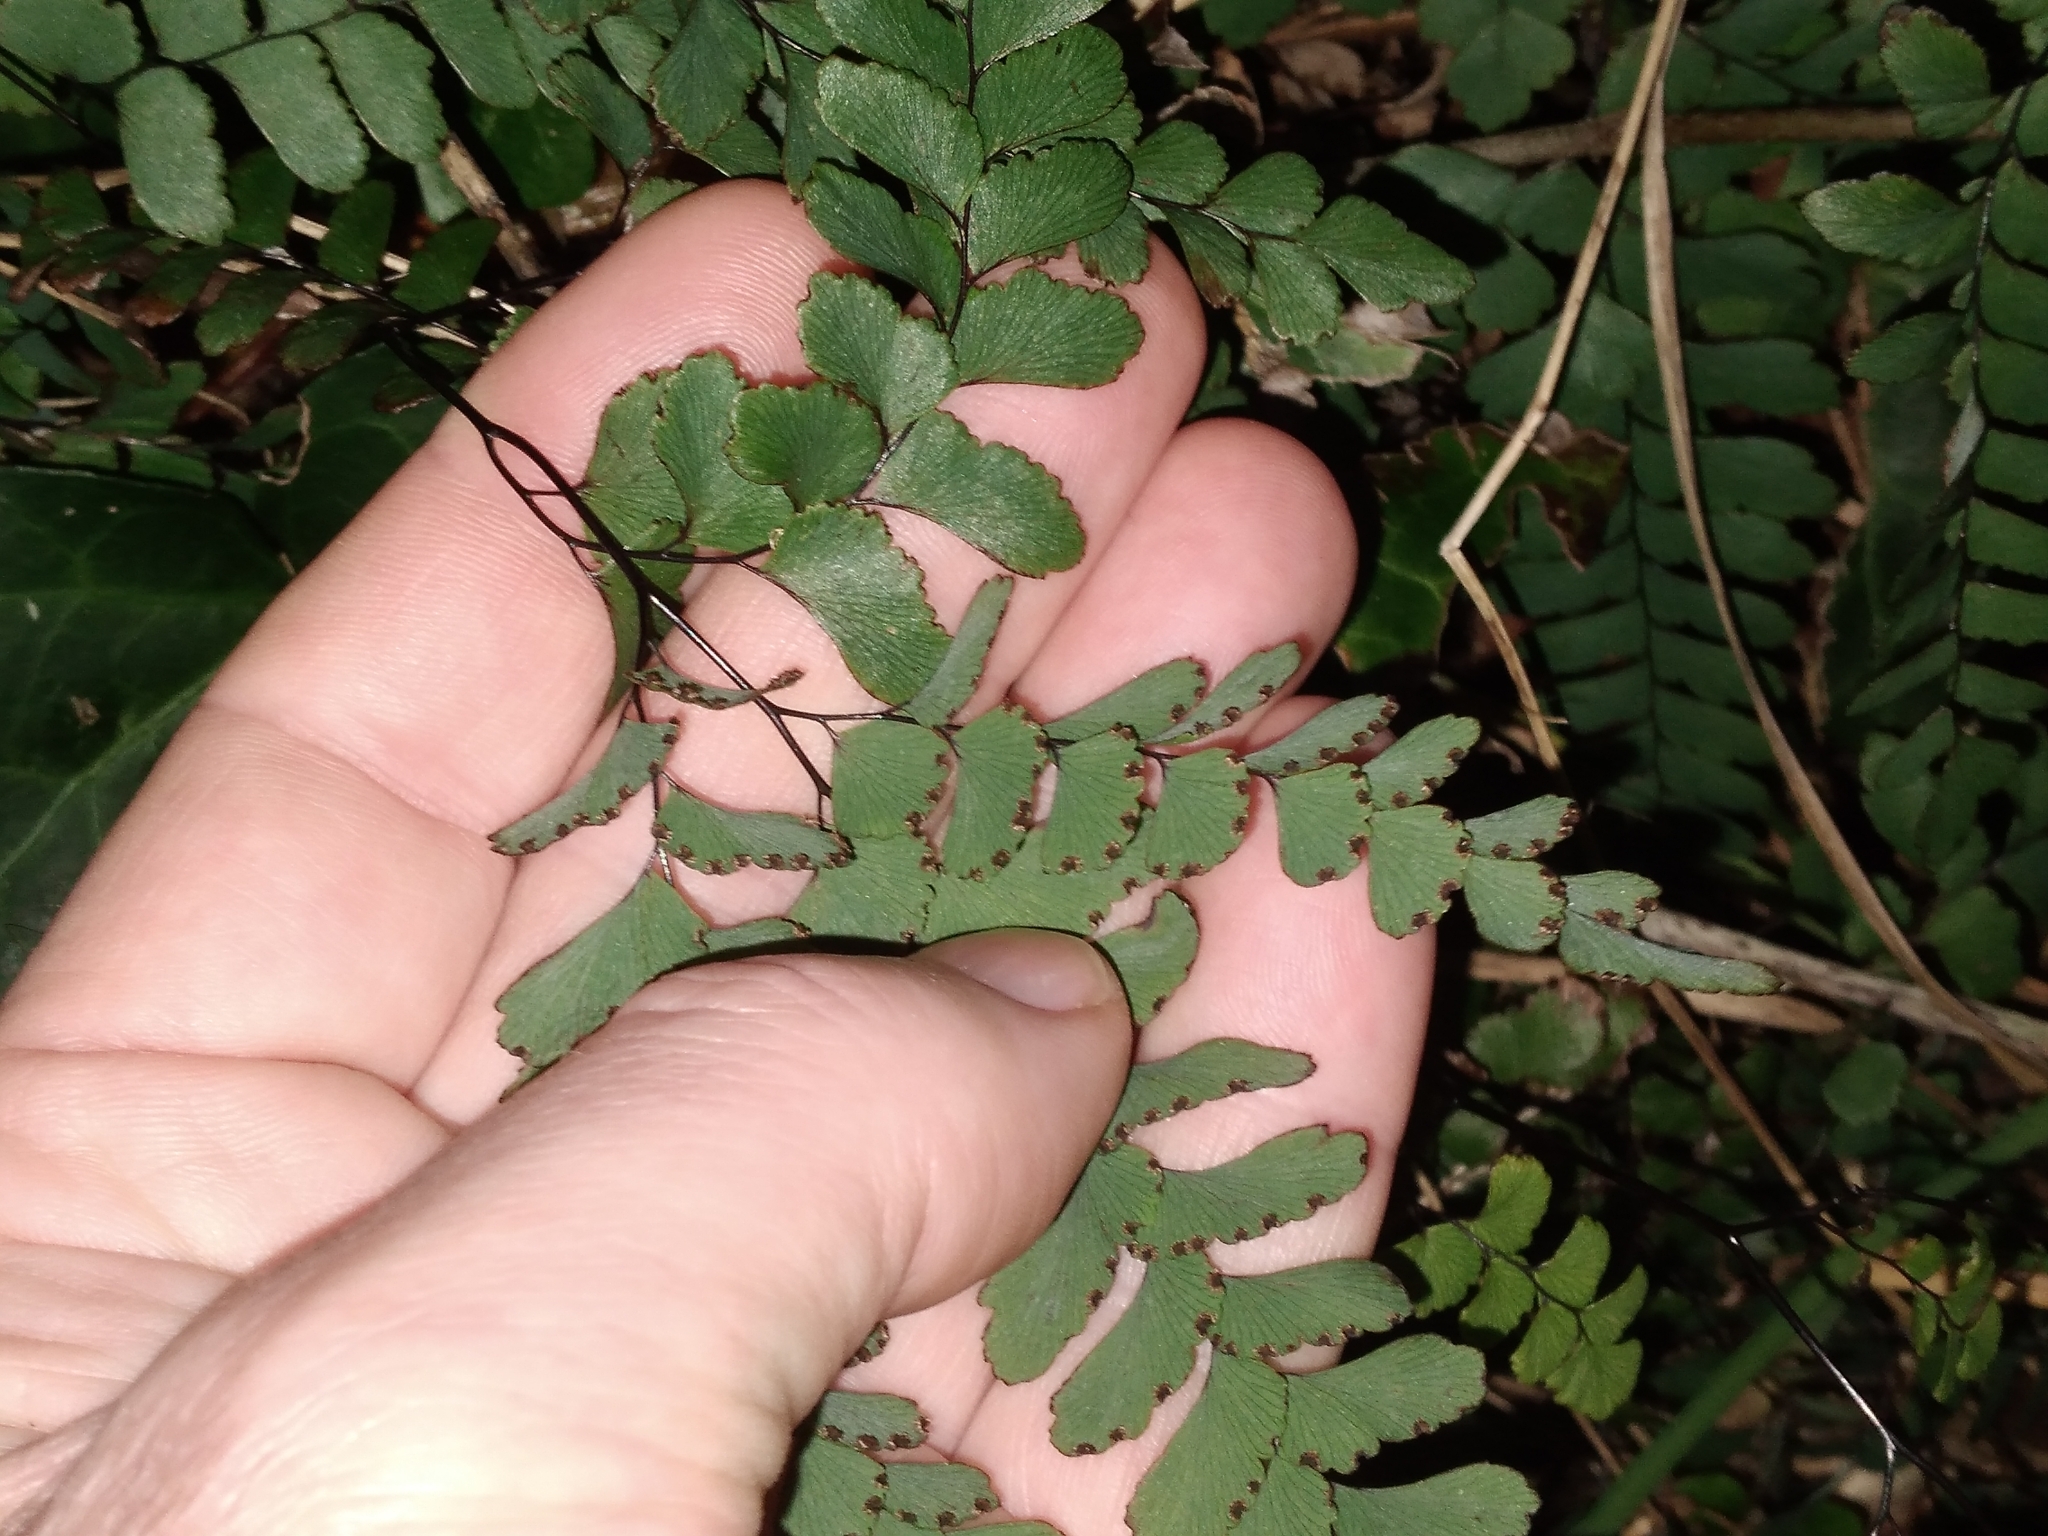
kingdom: Plantae
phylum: Tracheophyta
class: Polypodiopsida
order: Polypodiales
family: Pteridaceae
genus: Adiantum
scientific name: Adiantum cunninghamii
